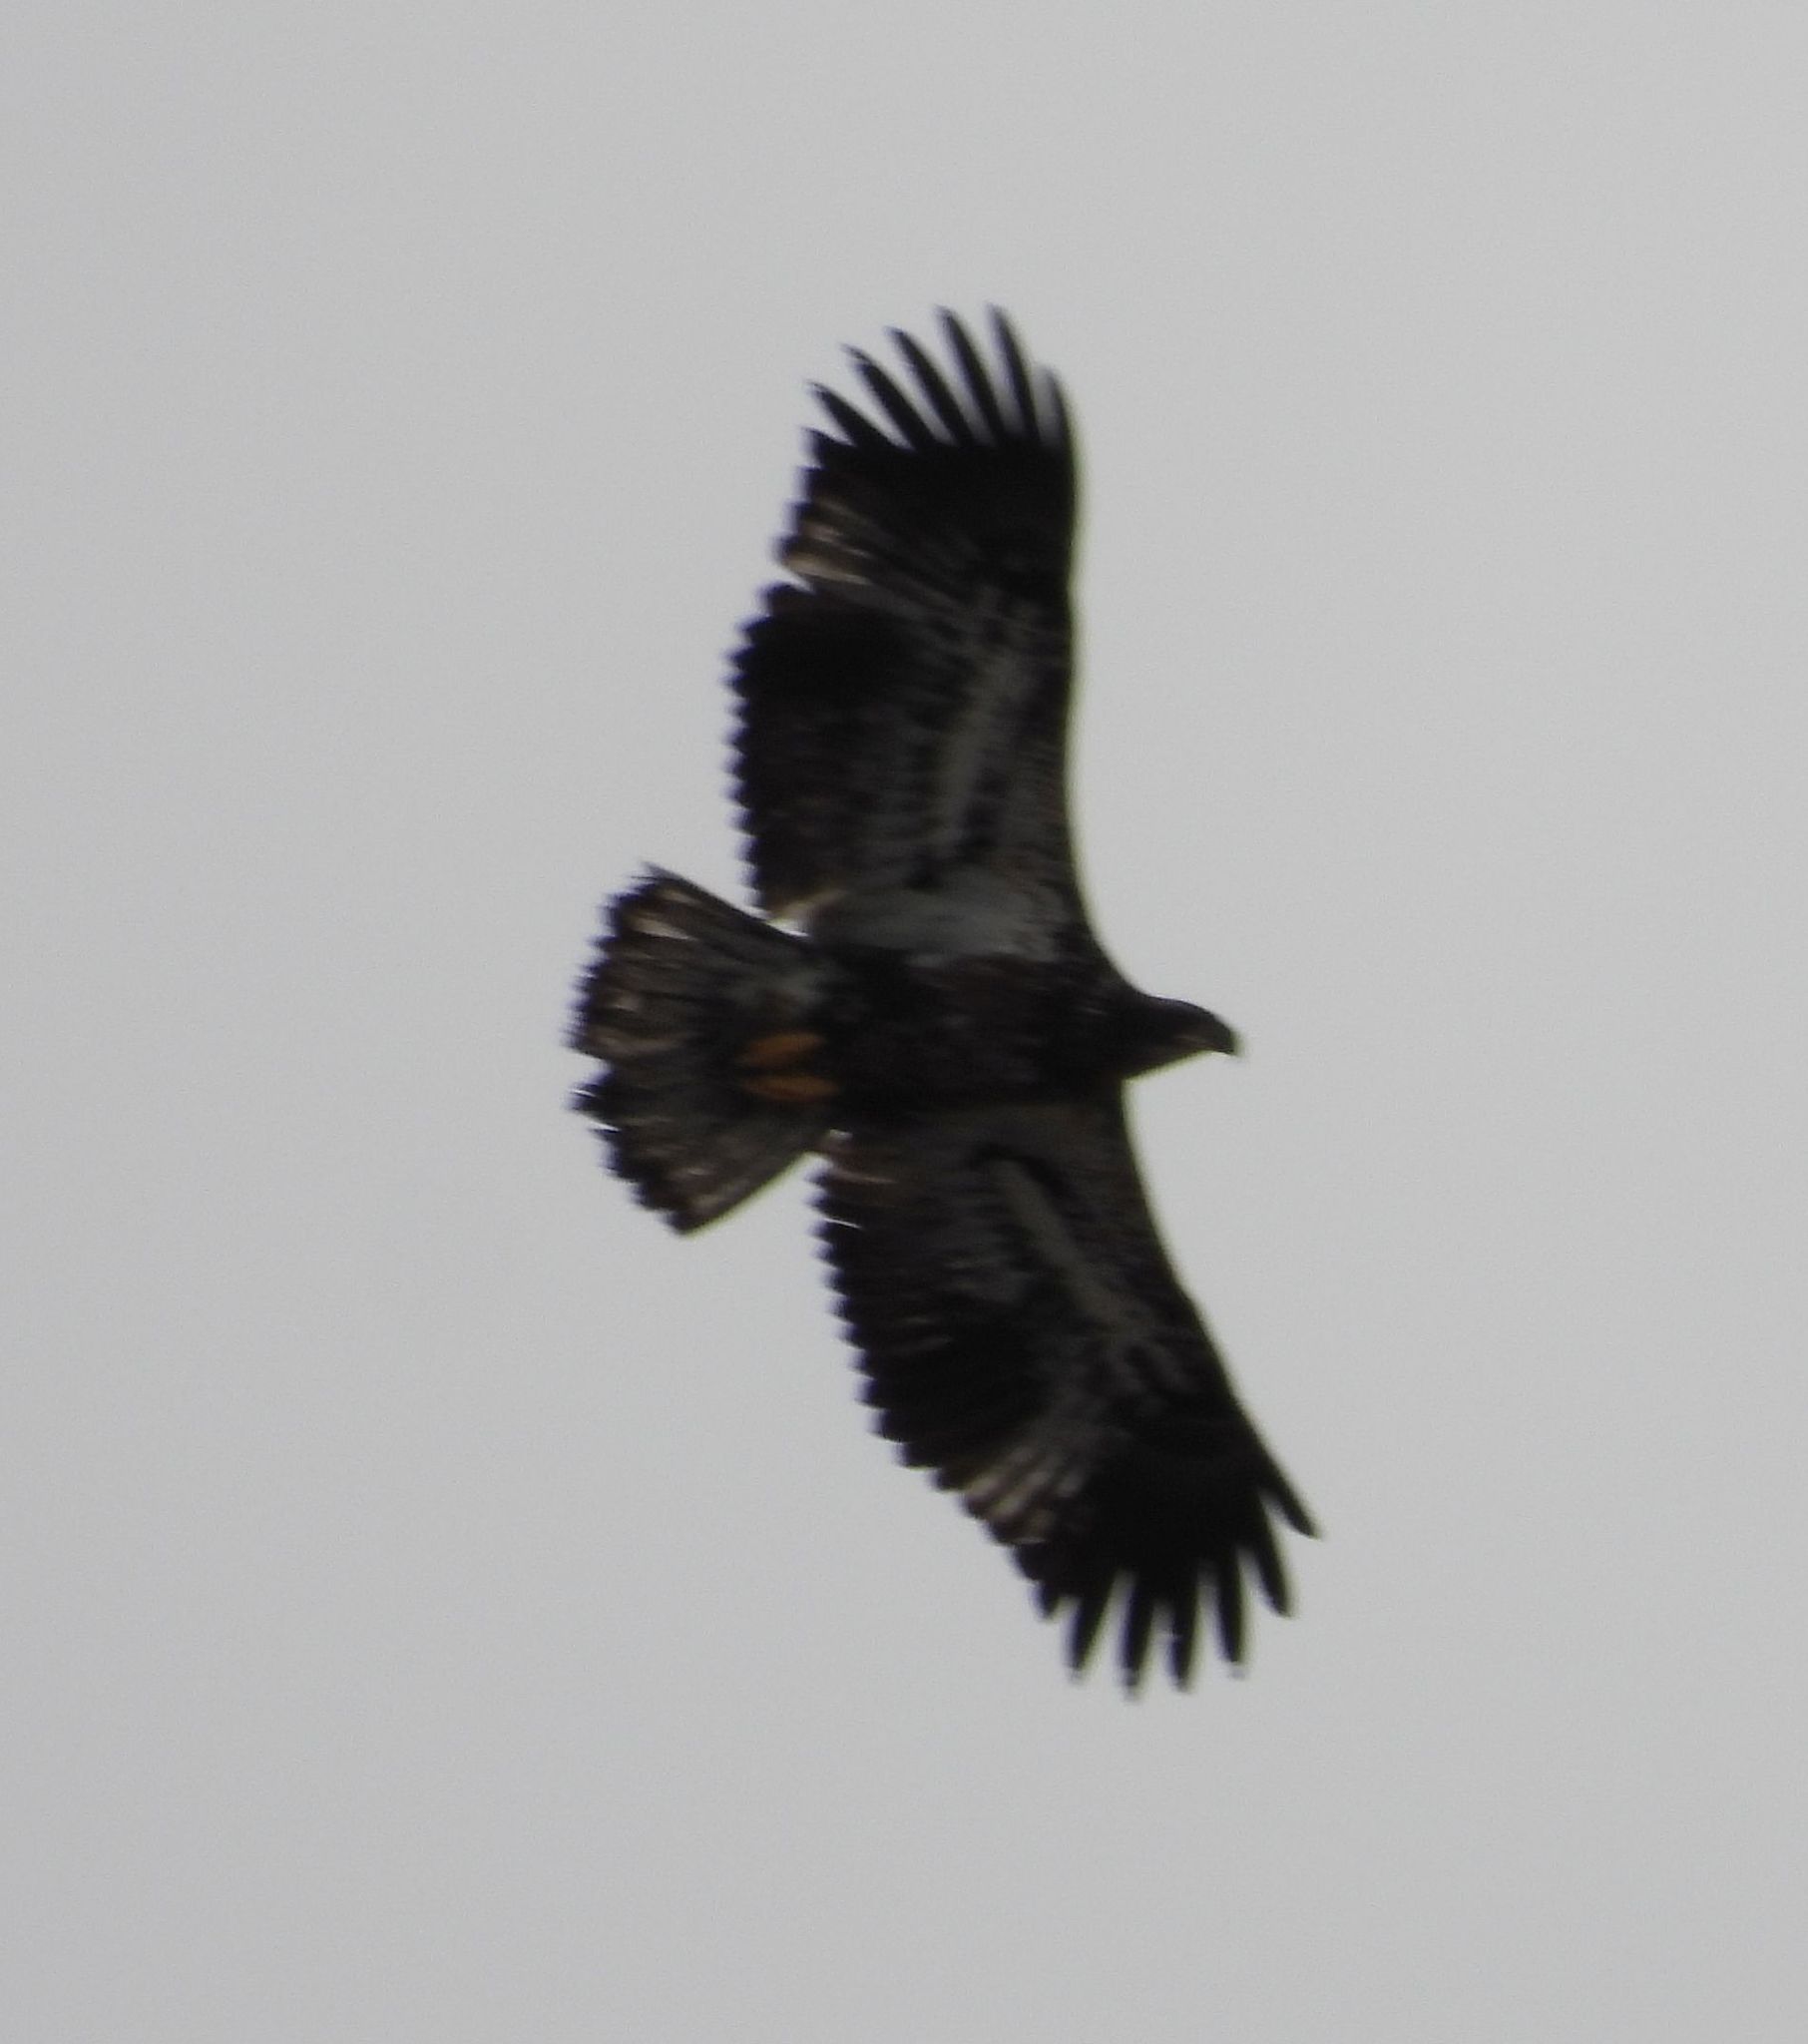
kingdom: Animalia
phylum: Chordata
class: Aves
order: Accipitriformes
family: Accipitridae
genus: Haliaeetus
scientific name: Haliaeetus leucocephalus
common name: Bald eagle
